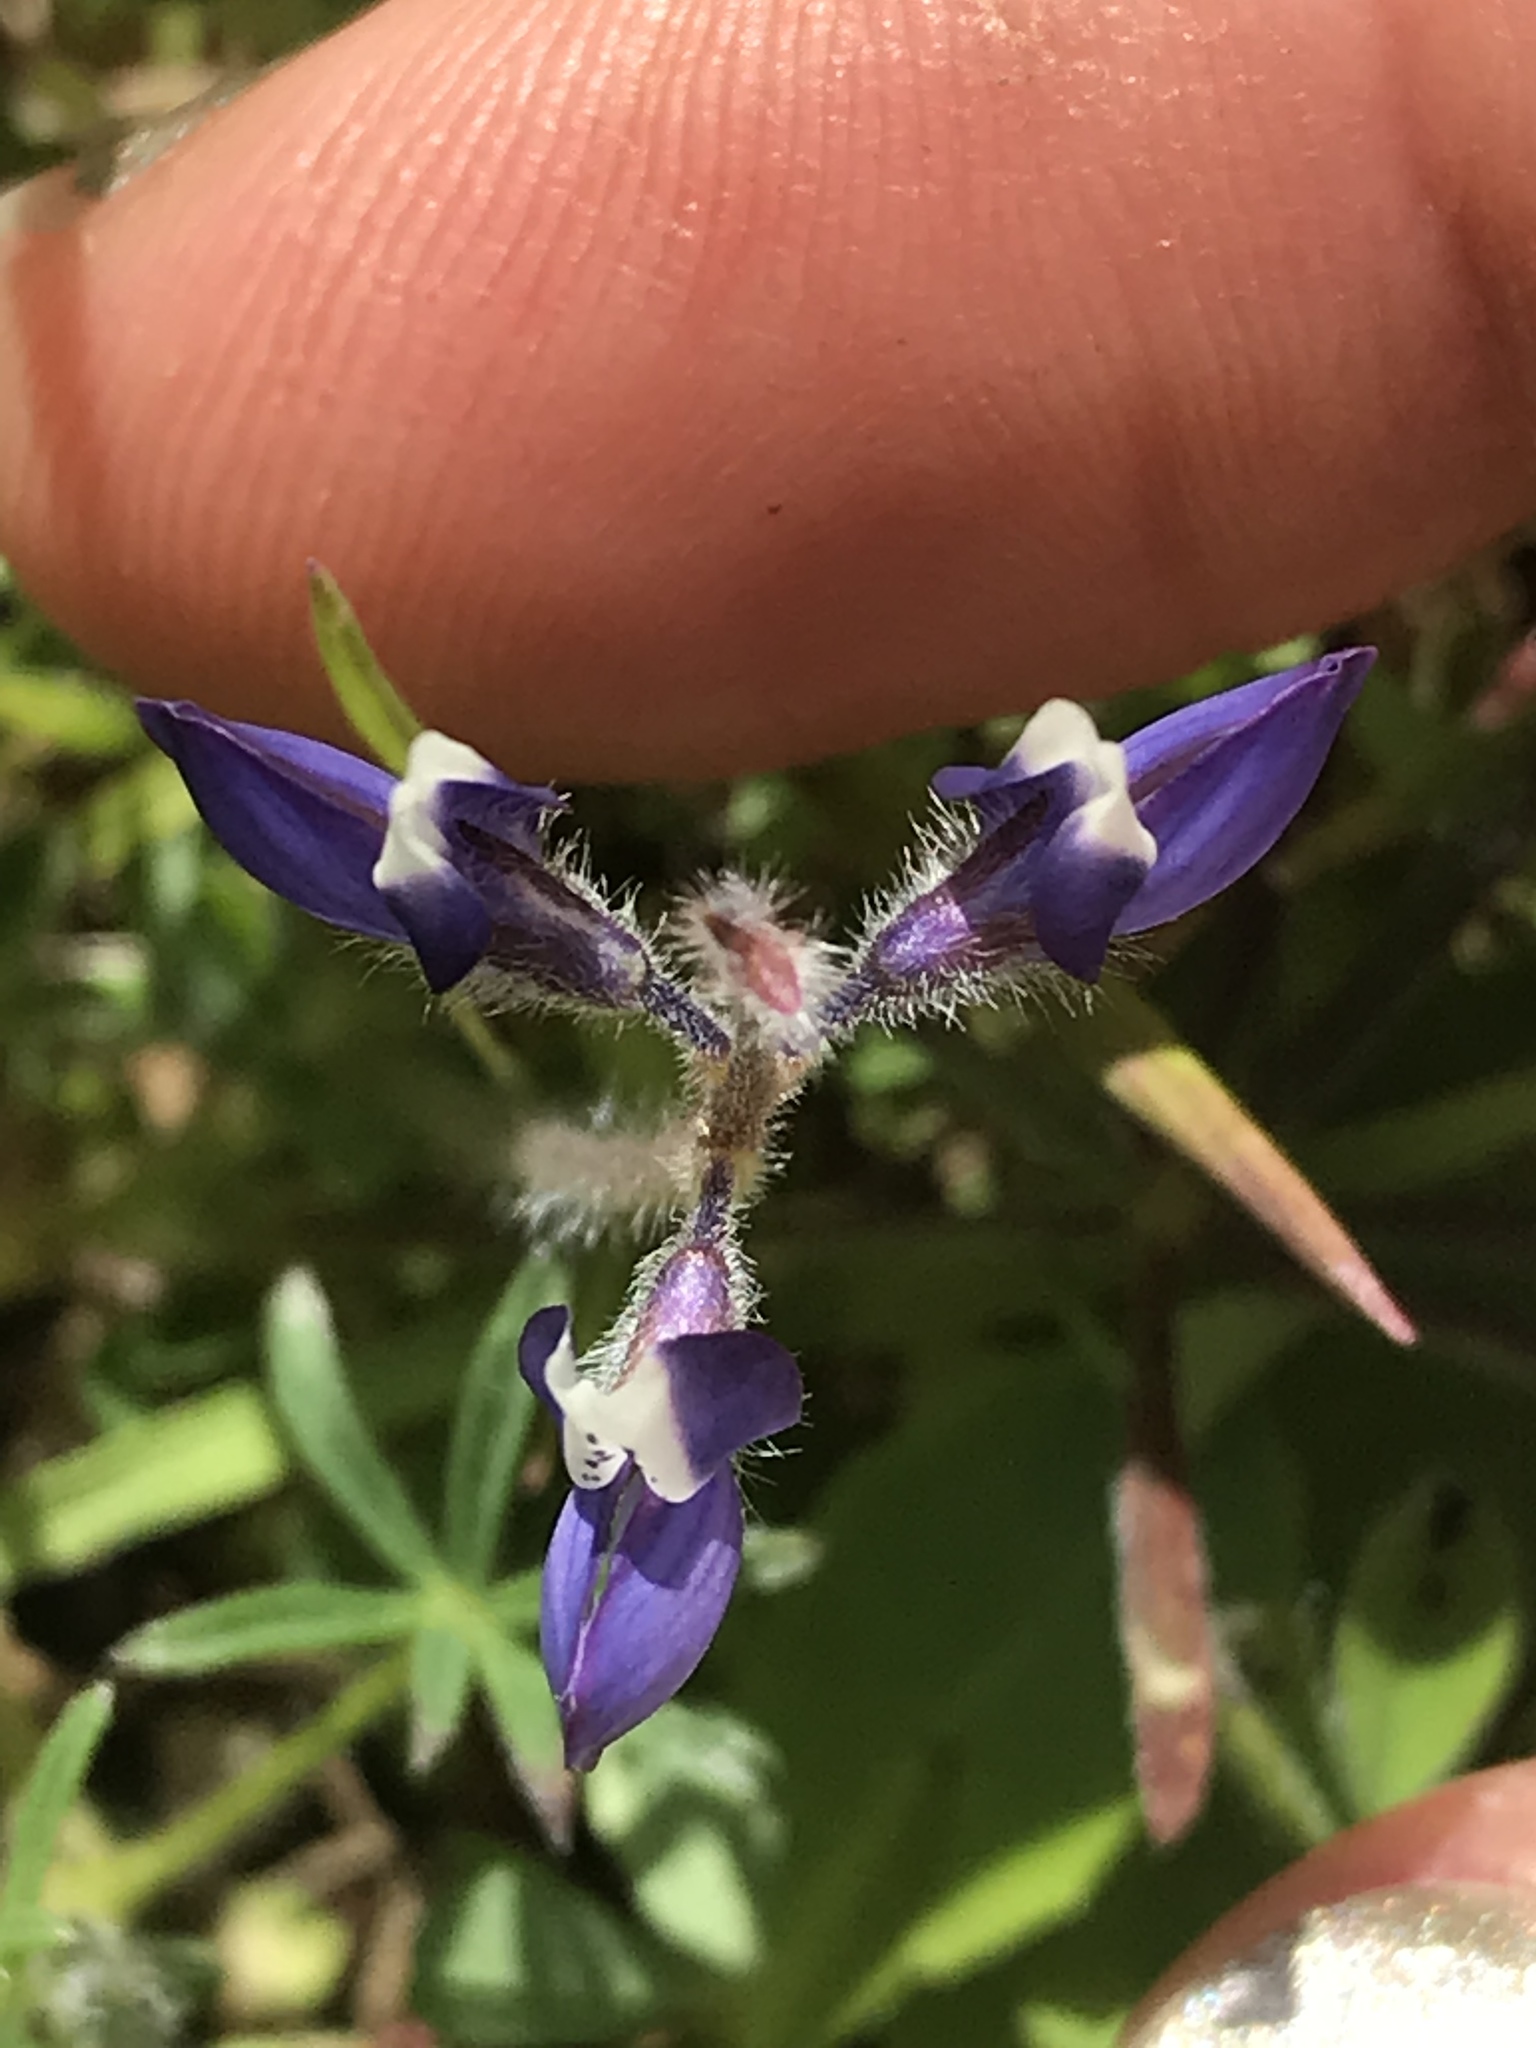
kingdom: Plantae
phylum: Tracheophyta
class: Magnoliopsida
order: Fabales
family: Fabaceae
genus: Lupinus
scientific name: Lupinus bicolor
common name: Miniature lupine
